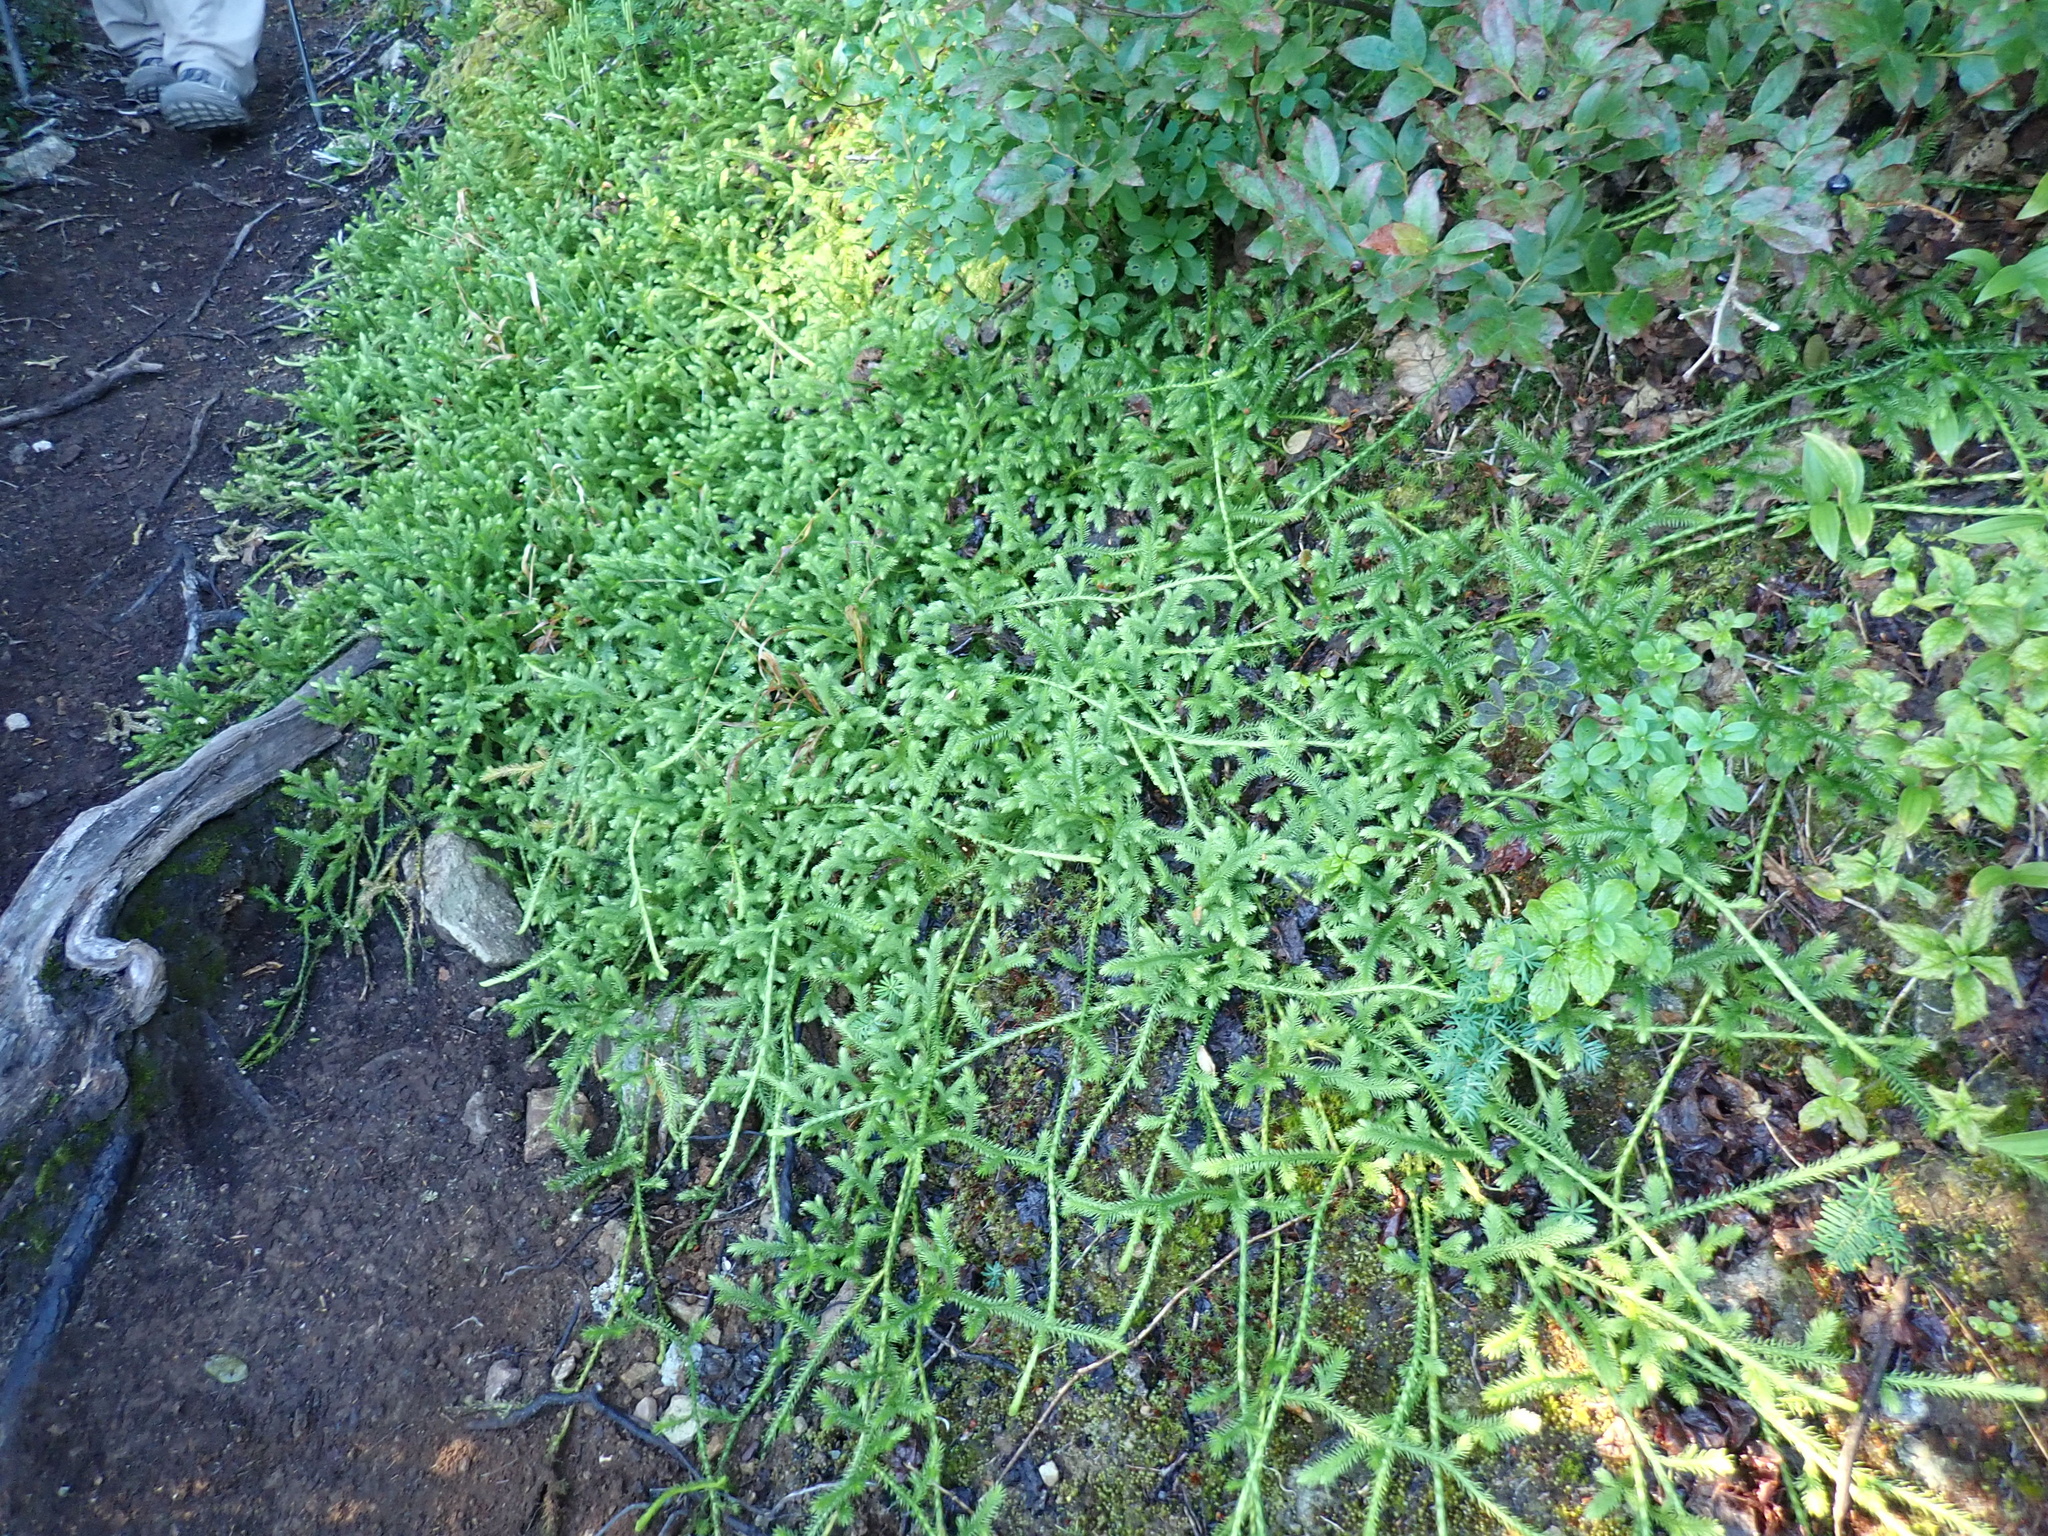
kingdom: Plantae
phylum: Tracheophyta
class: Lycopodiopsida
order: Lycopodiales
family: Lycopodiaceae
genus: Lycopodium
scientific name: Lycopodium clavatum
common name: Stag's-horn clubmoss
